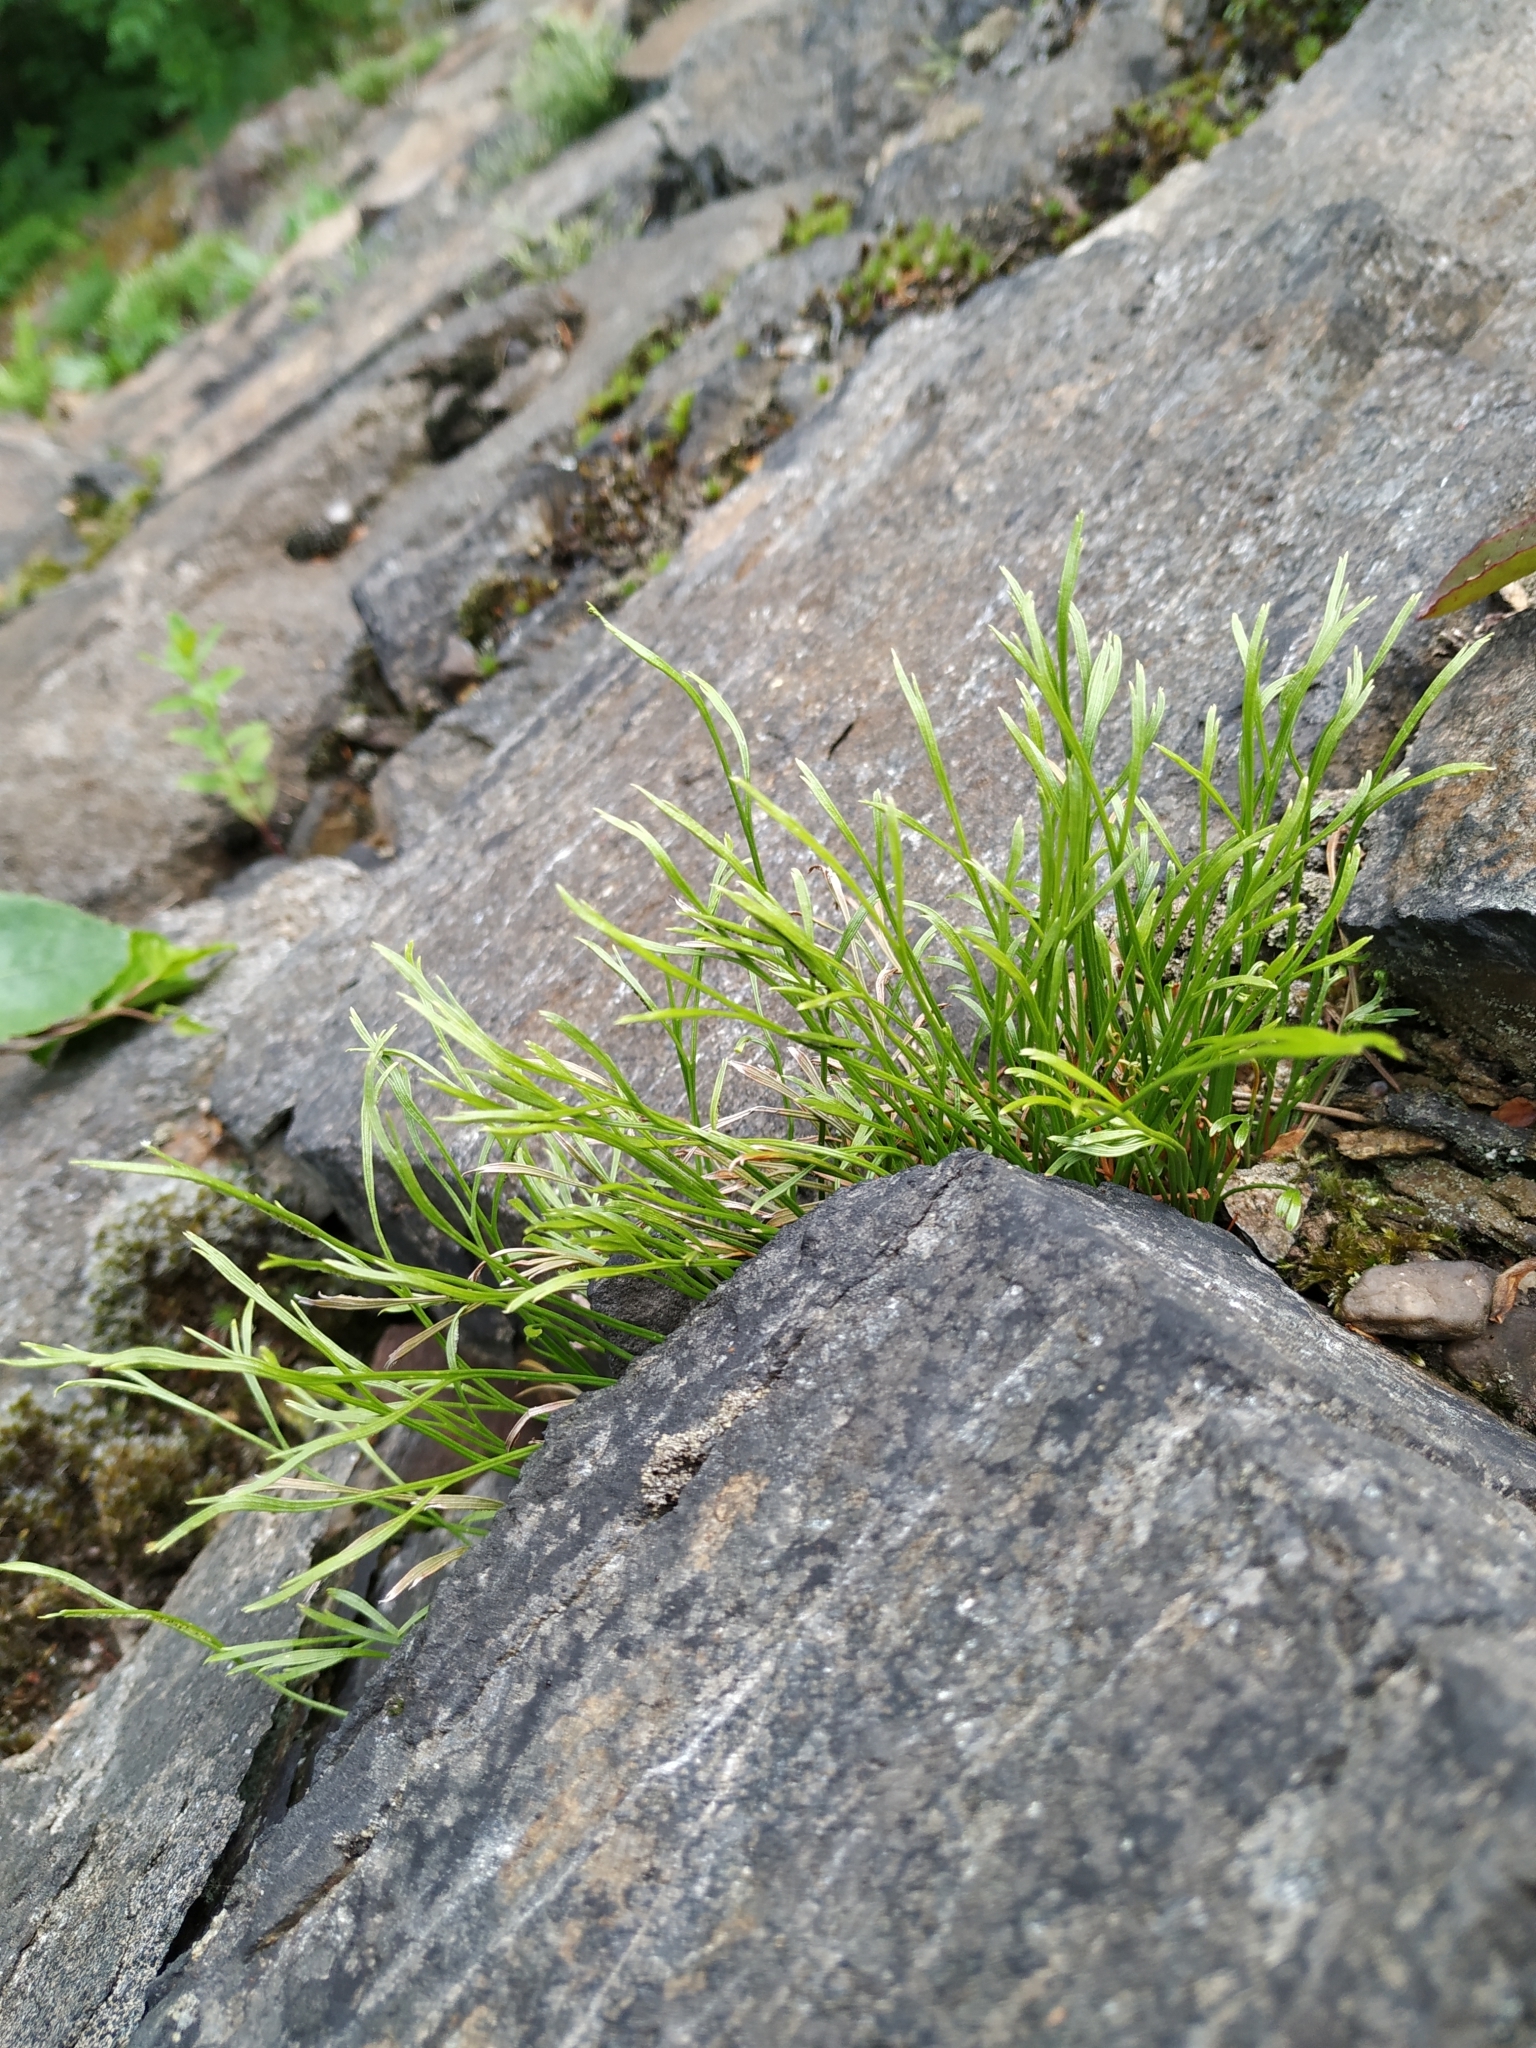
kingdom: Plantae
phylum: Tracheophyta
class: Polypodiopsida
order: Polypodiales
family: Aspleniaceae
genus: Asplenium
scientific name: Asplenium septentrionale
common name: Forked spleenwort
